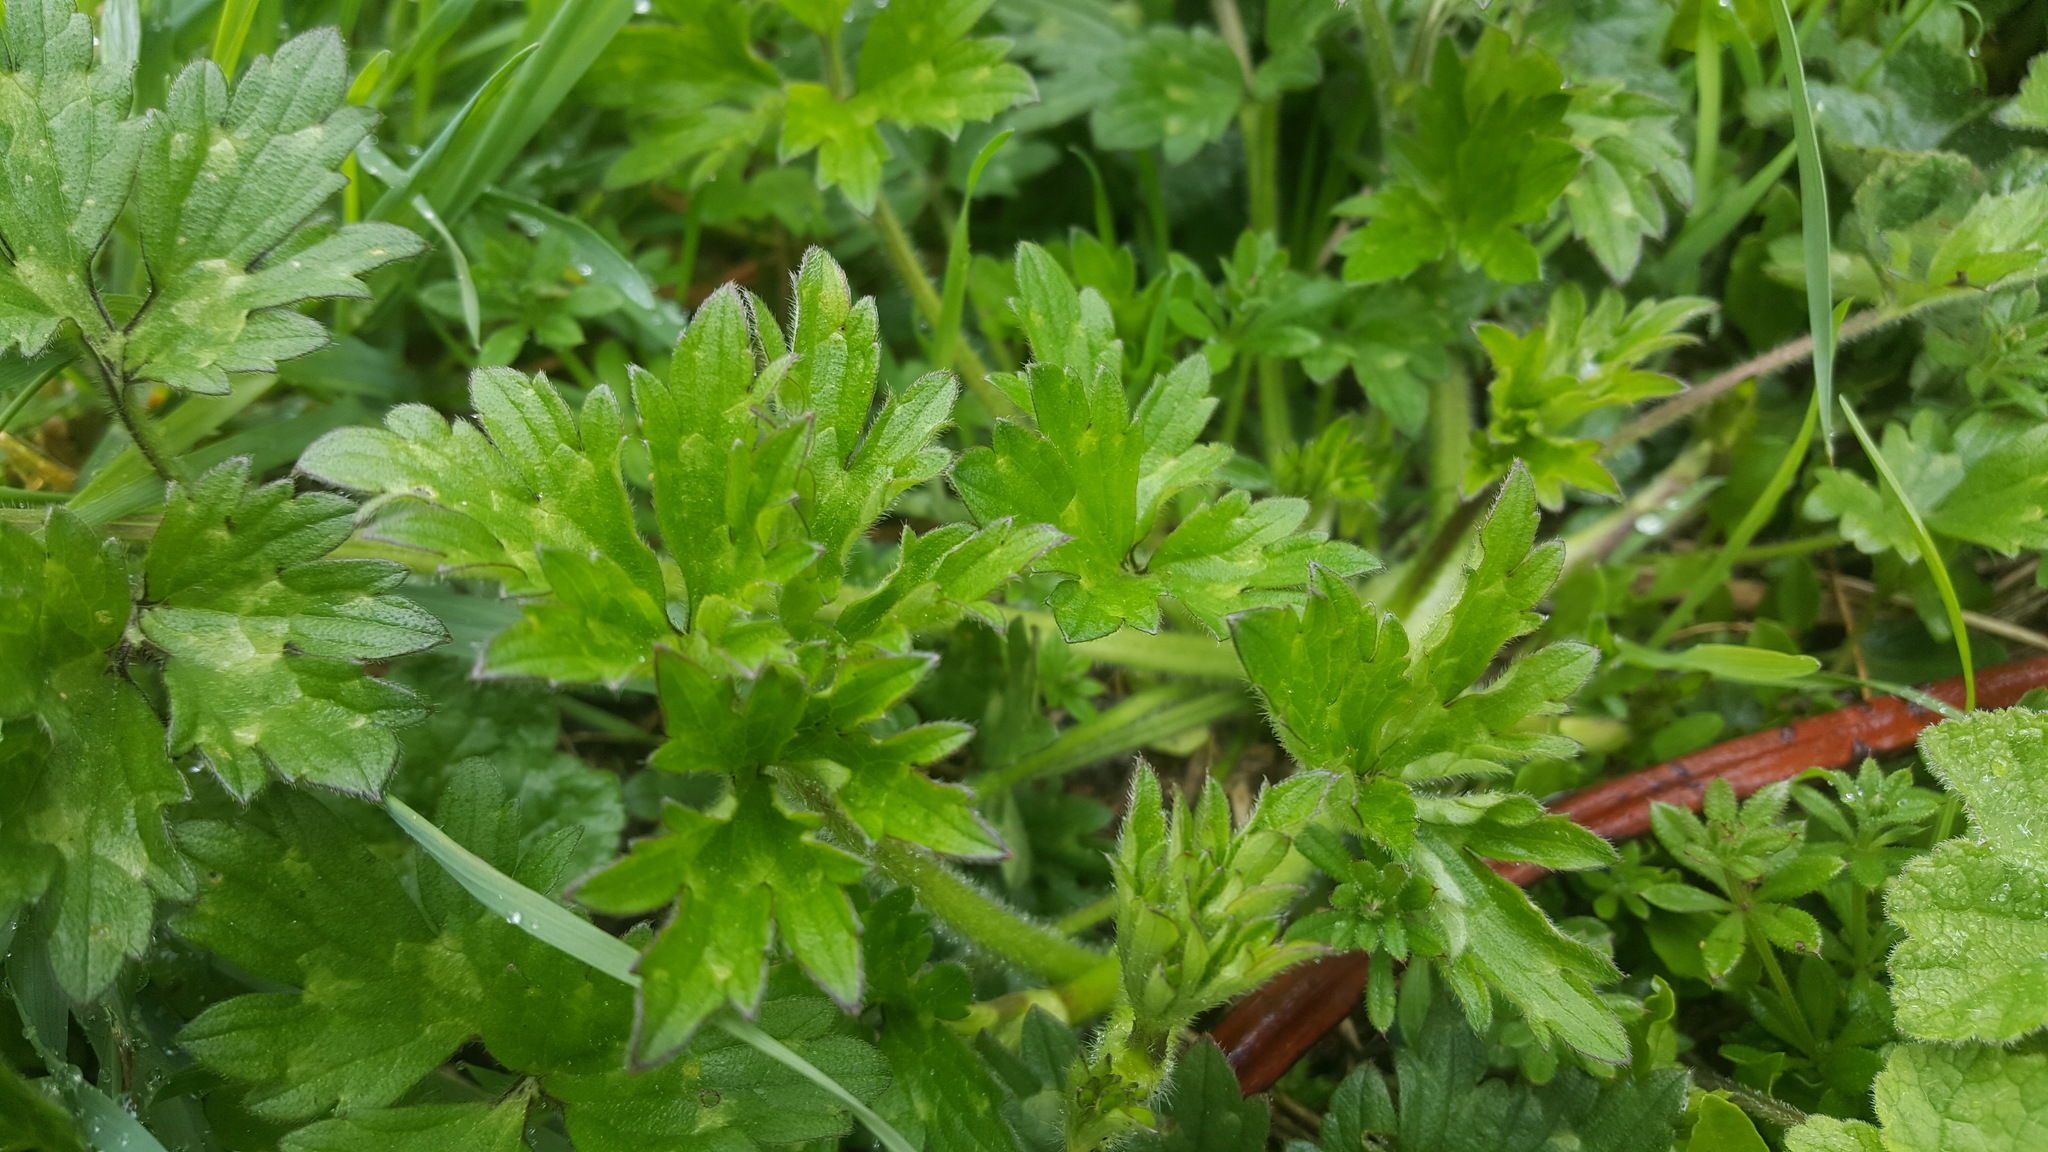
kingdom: Plantae
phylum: Tracheophyta
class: Magnoliopsida
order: Ranunculales
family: Ranunculaceae
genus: Ranunculus
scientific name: Ranunculus repens
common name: Creeping buttercup
